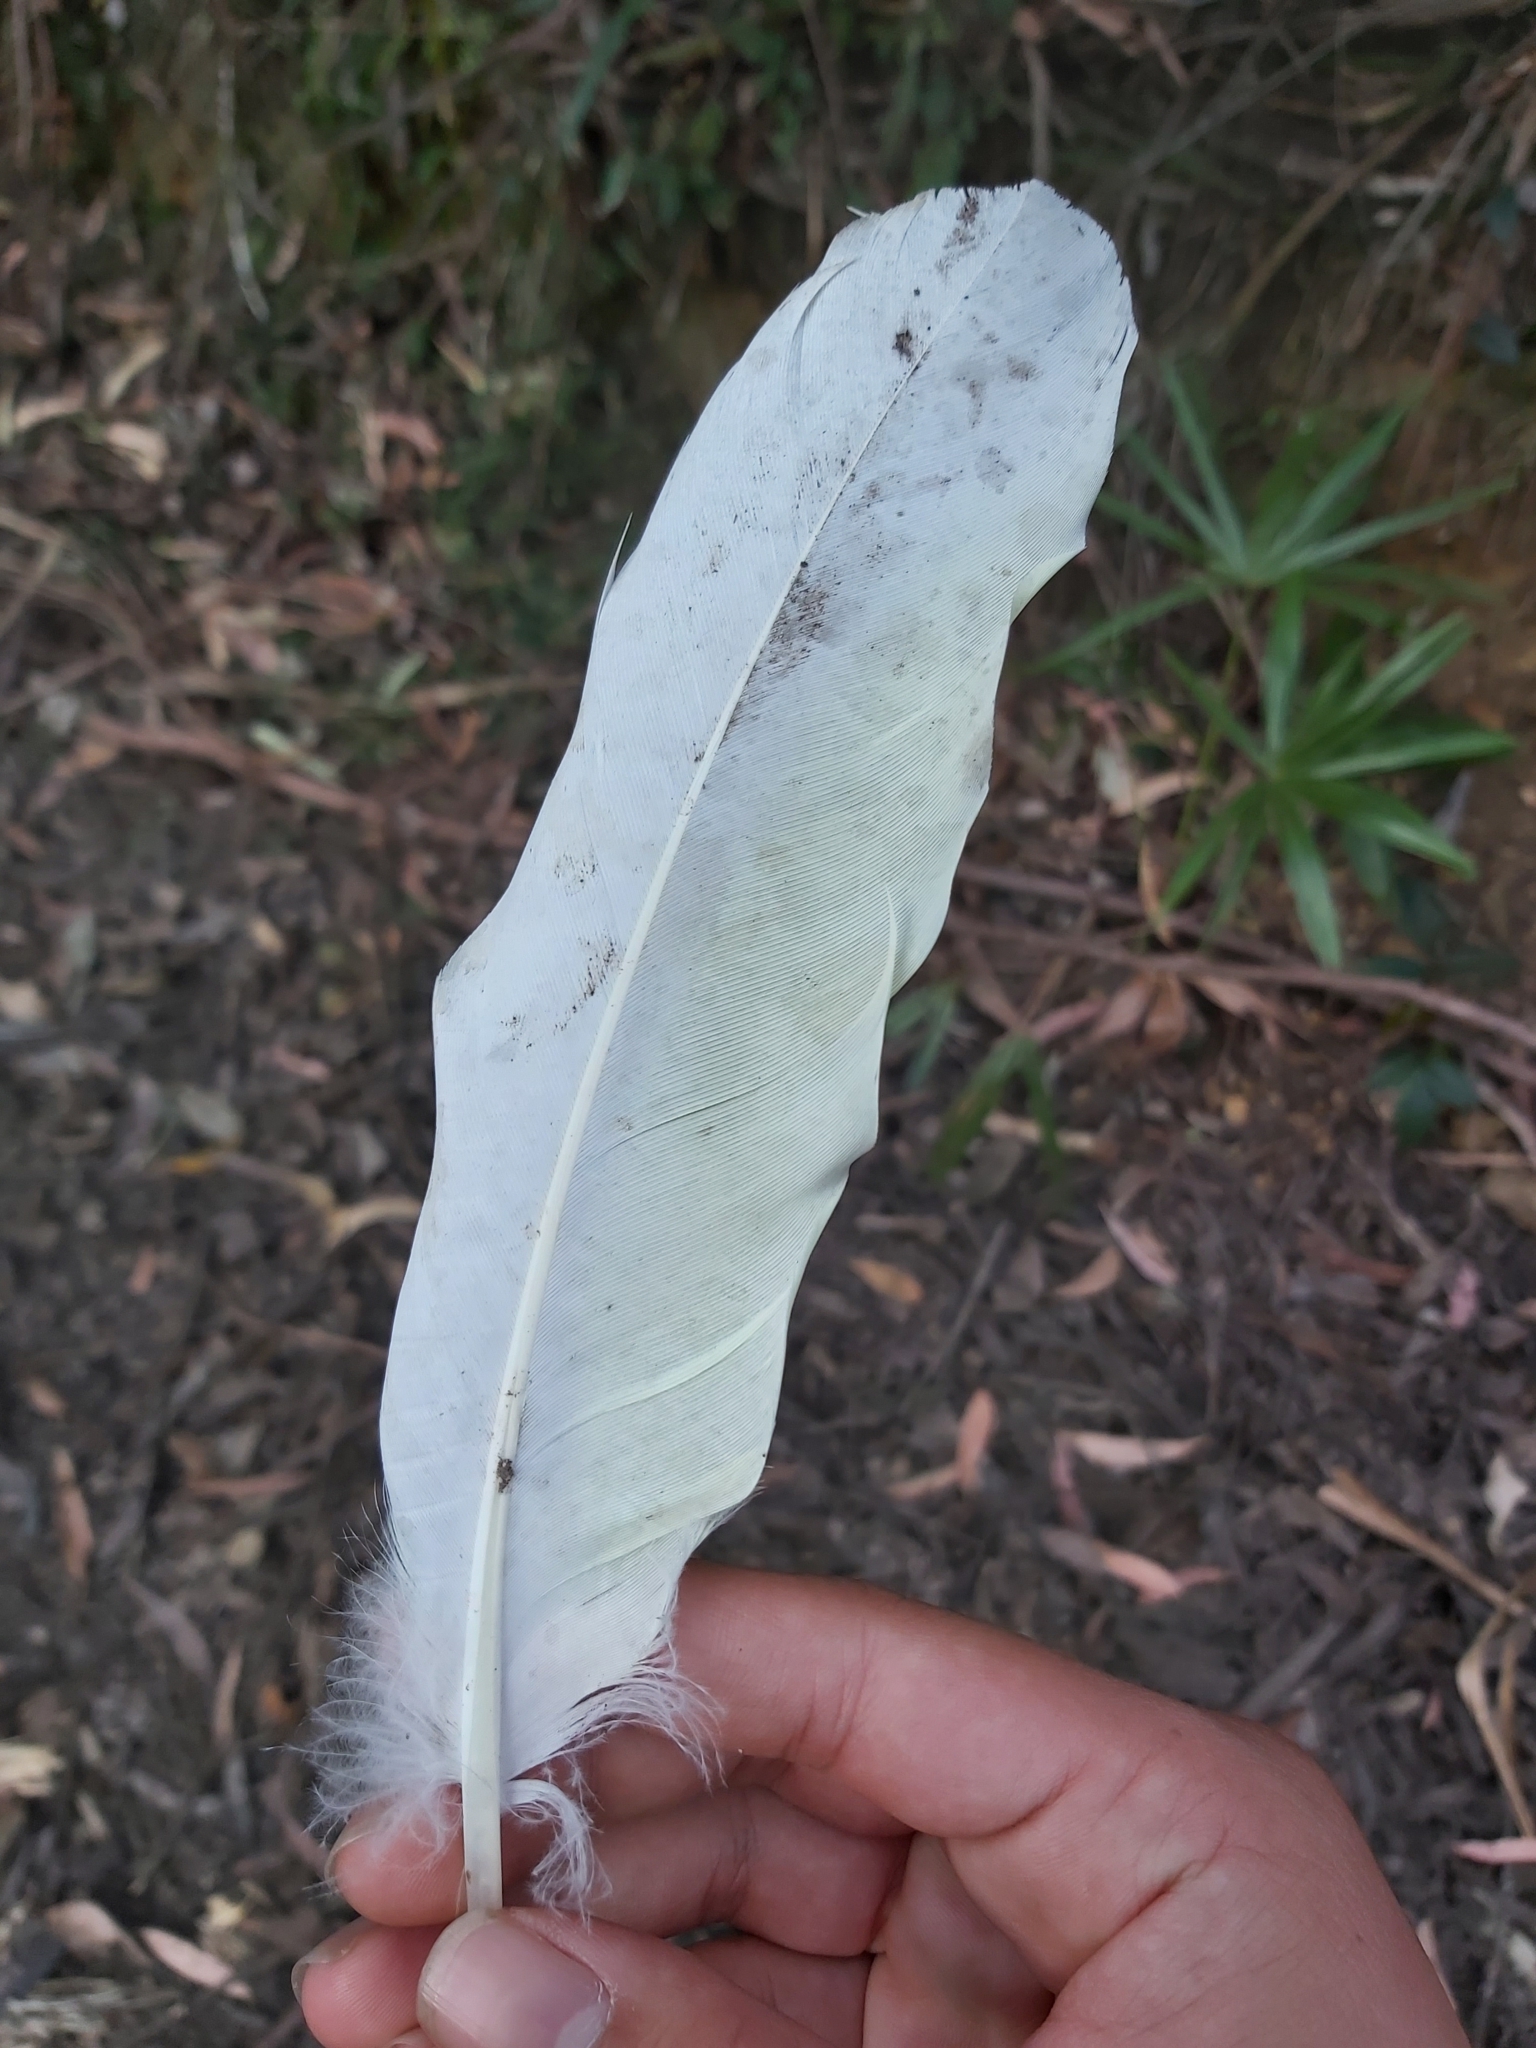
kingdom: Animalia
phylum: Chordata
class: Aves
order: Psittaciformes
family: Psittacidae
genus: Cacatua
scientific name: Cacatua galerita
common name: Sulphur-crested cockatoo
